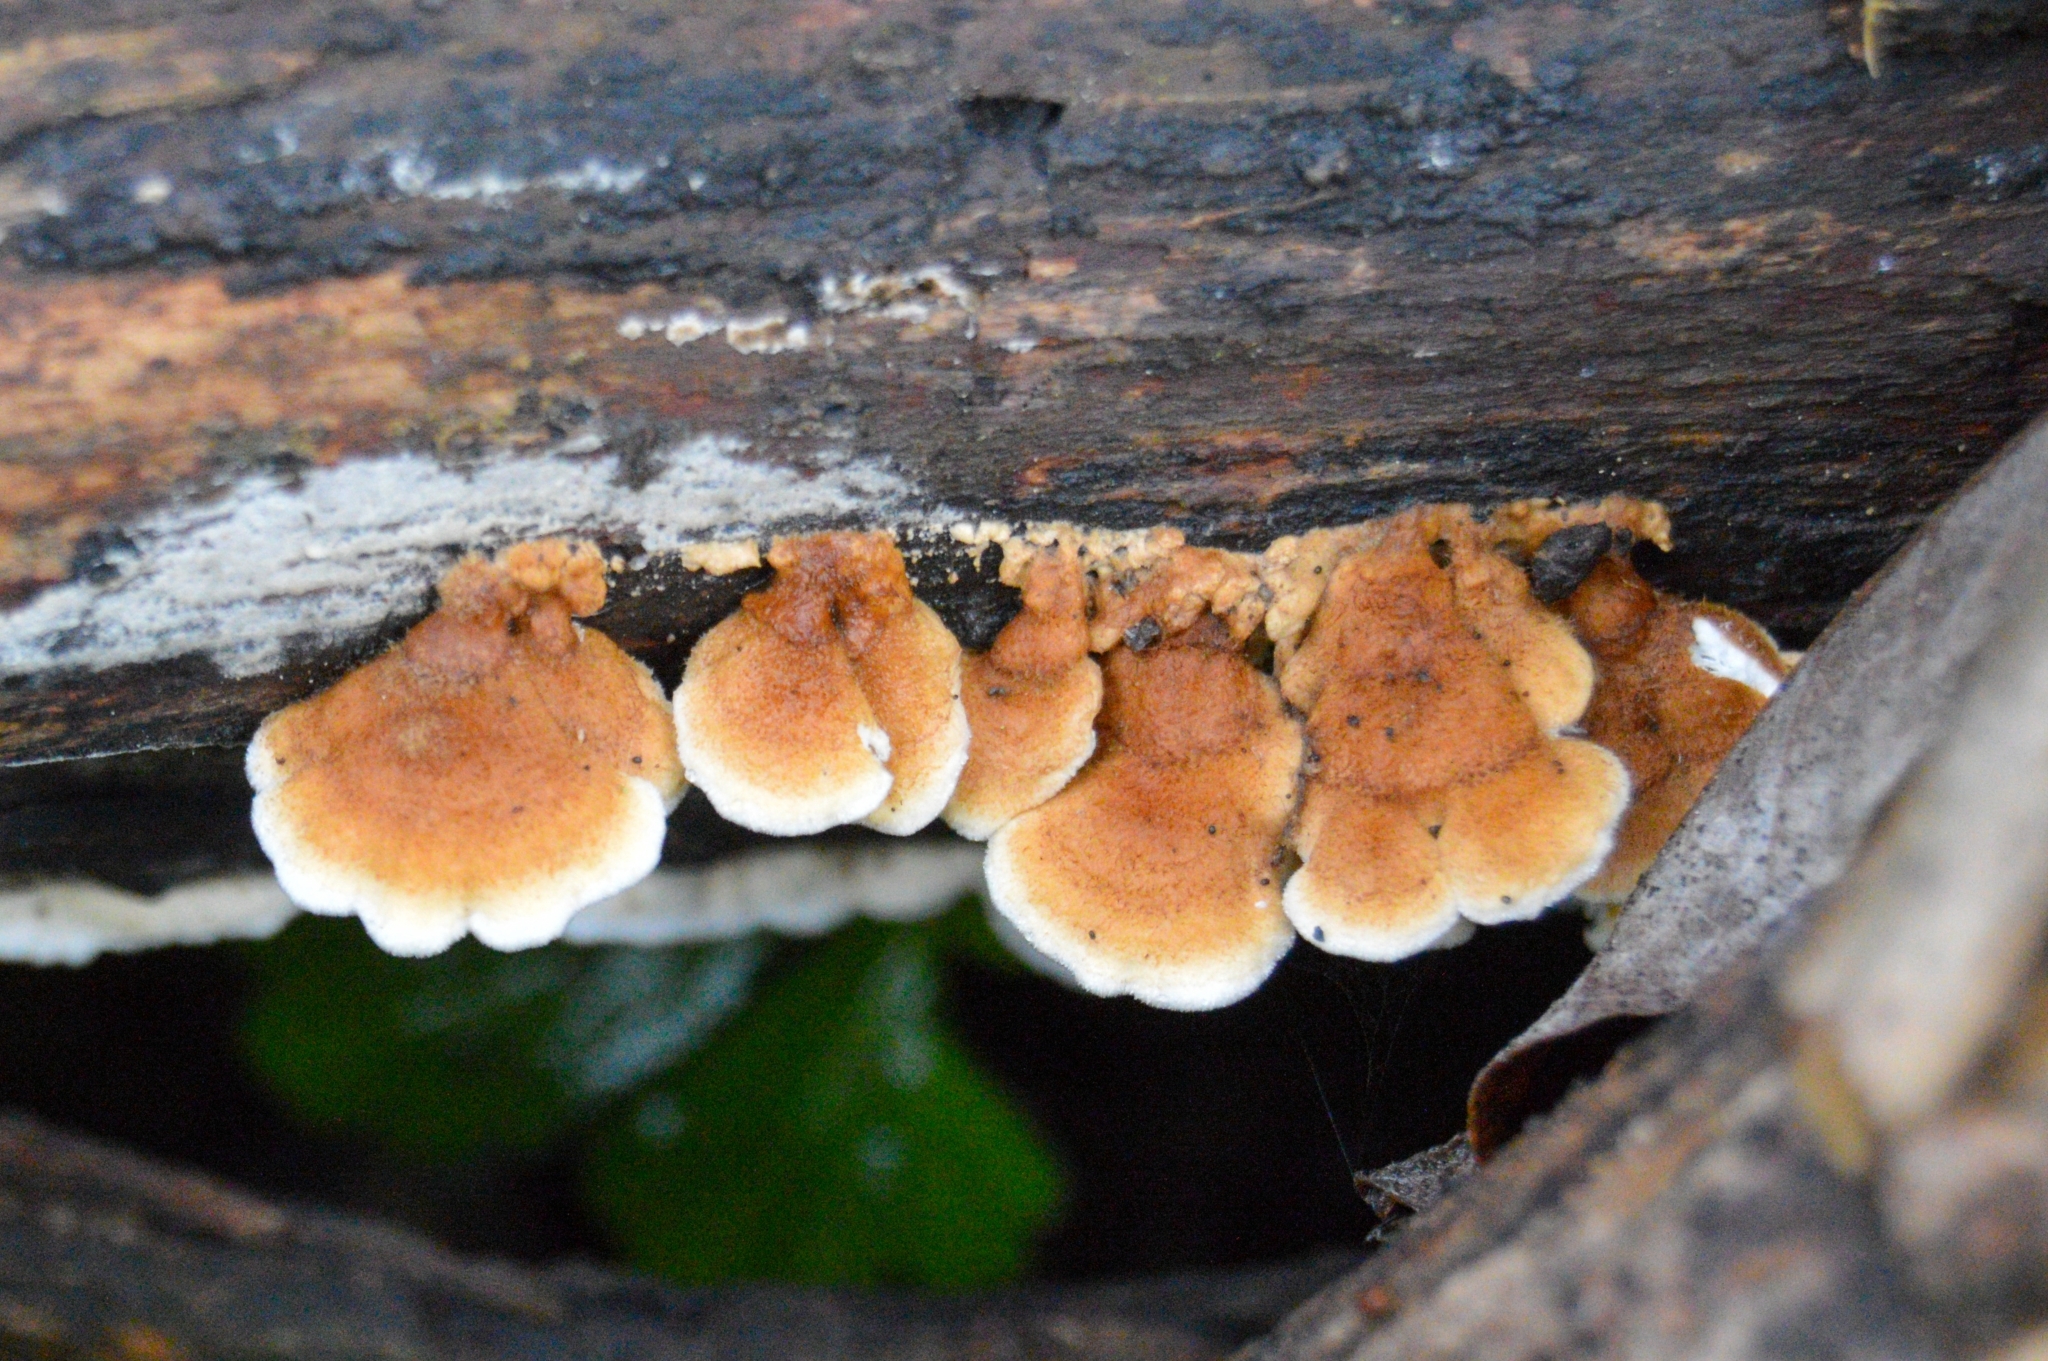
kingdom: Fungi
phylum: Basidiomycota
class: Agaricomycetes
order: Amylocorticiales
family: Amylocorticiaceae
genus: Plicaturopsis
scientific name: Plicaturopsis crispa
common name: Crimped gill
